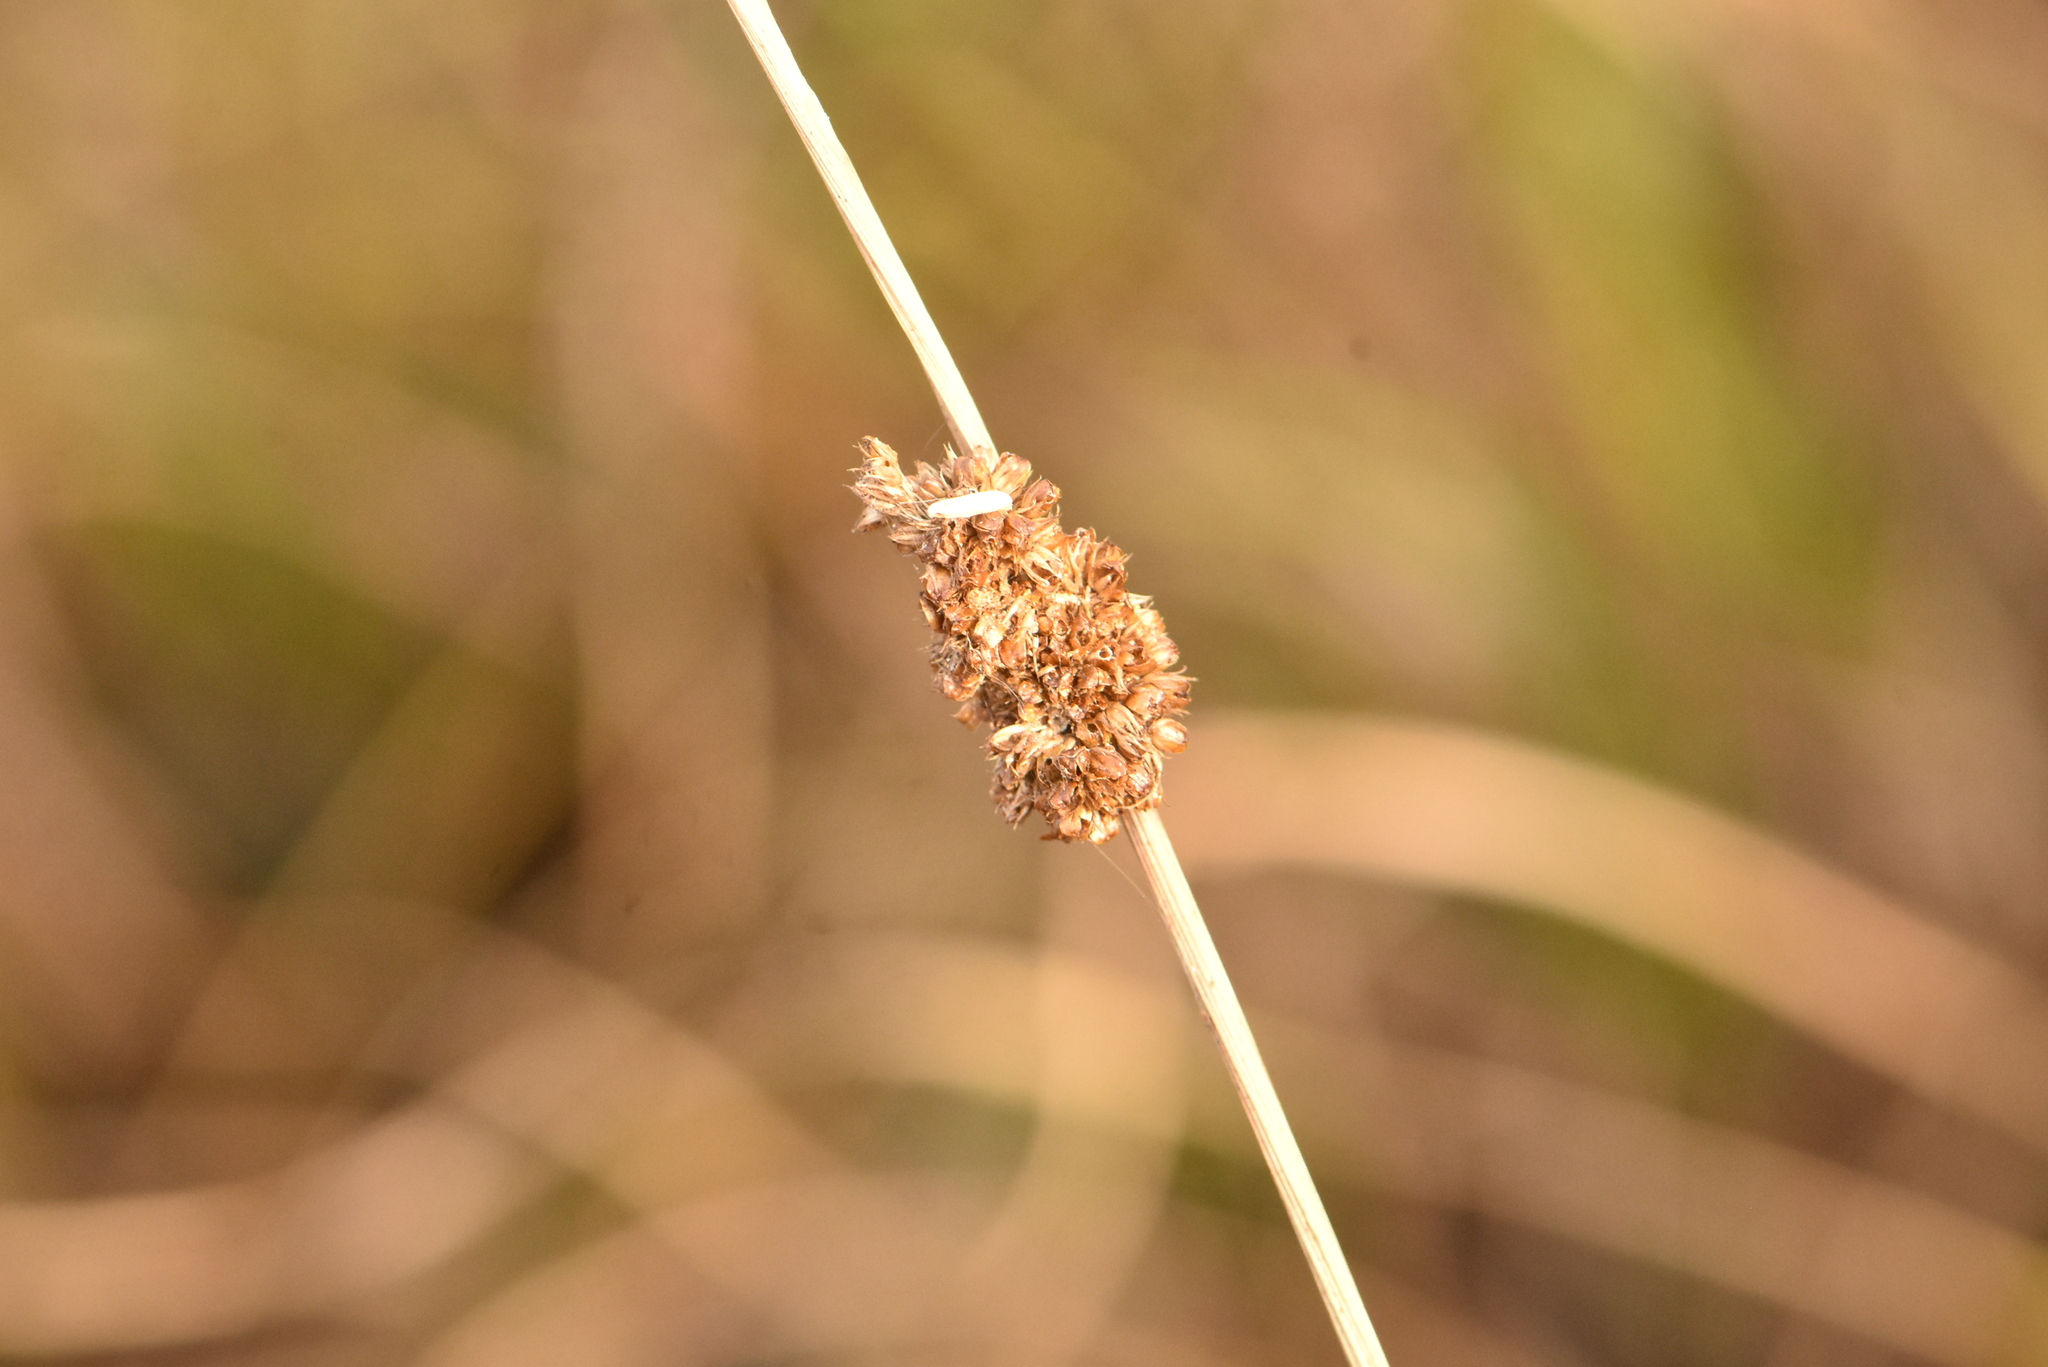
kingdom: Plantae
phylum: Tracheophyta
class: Liliopsida
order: Poales
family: Juncaceae
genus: Juncus
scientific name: Juncus conglomeratus
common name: Compact rush
